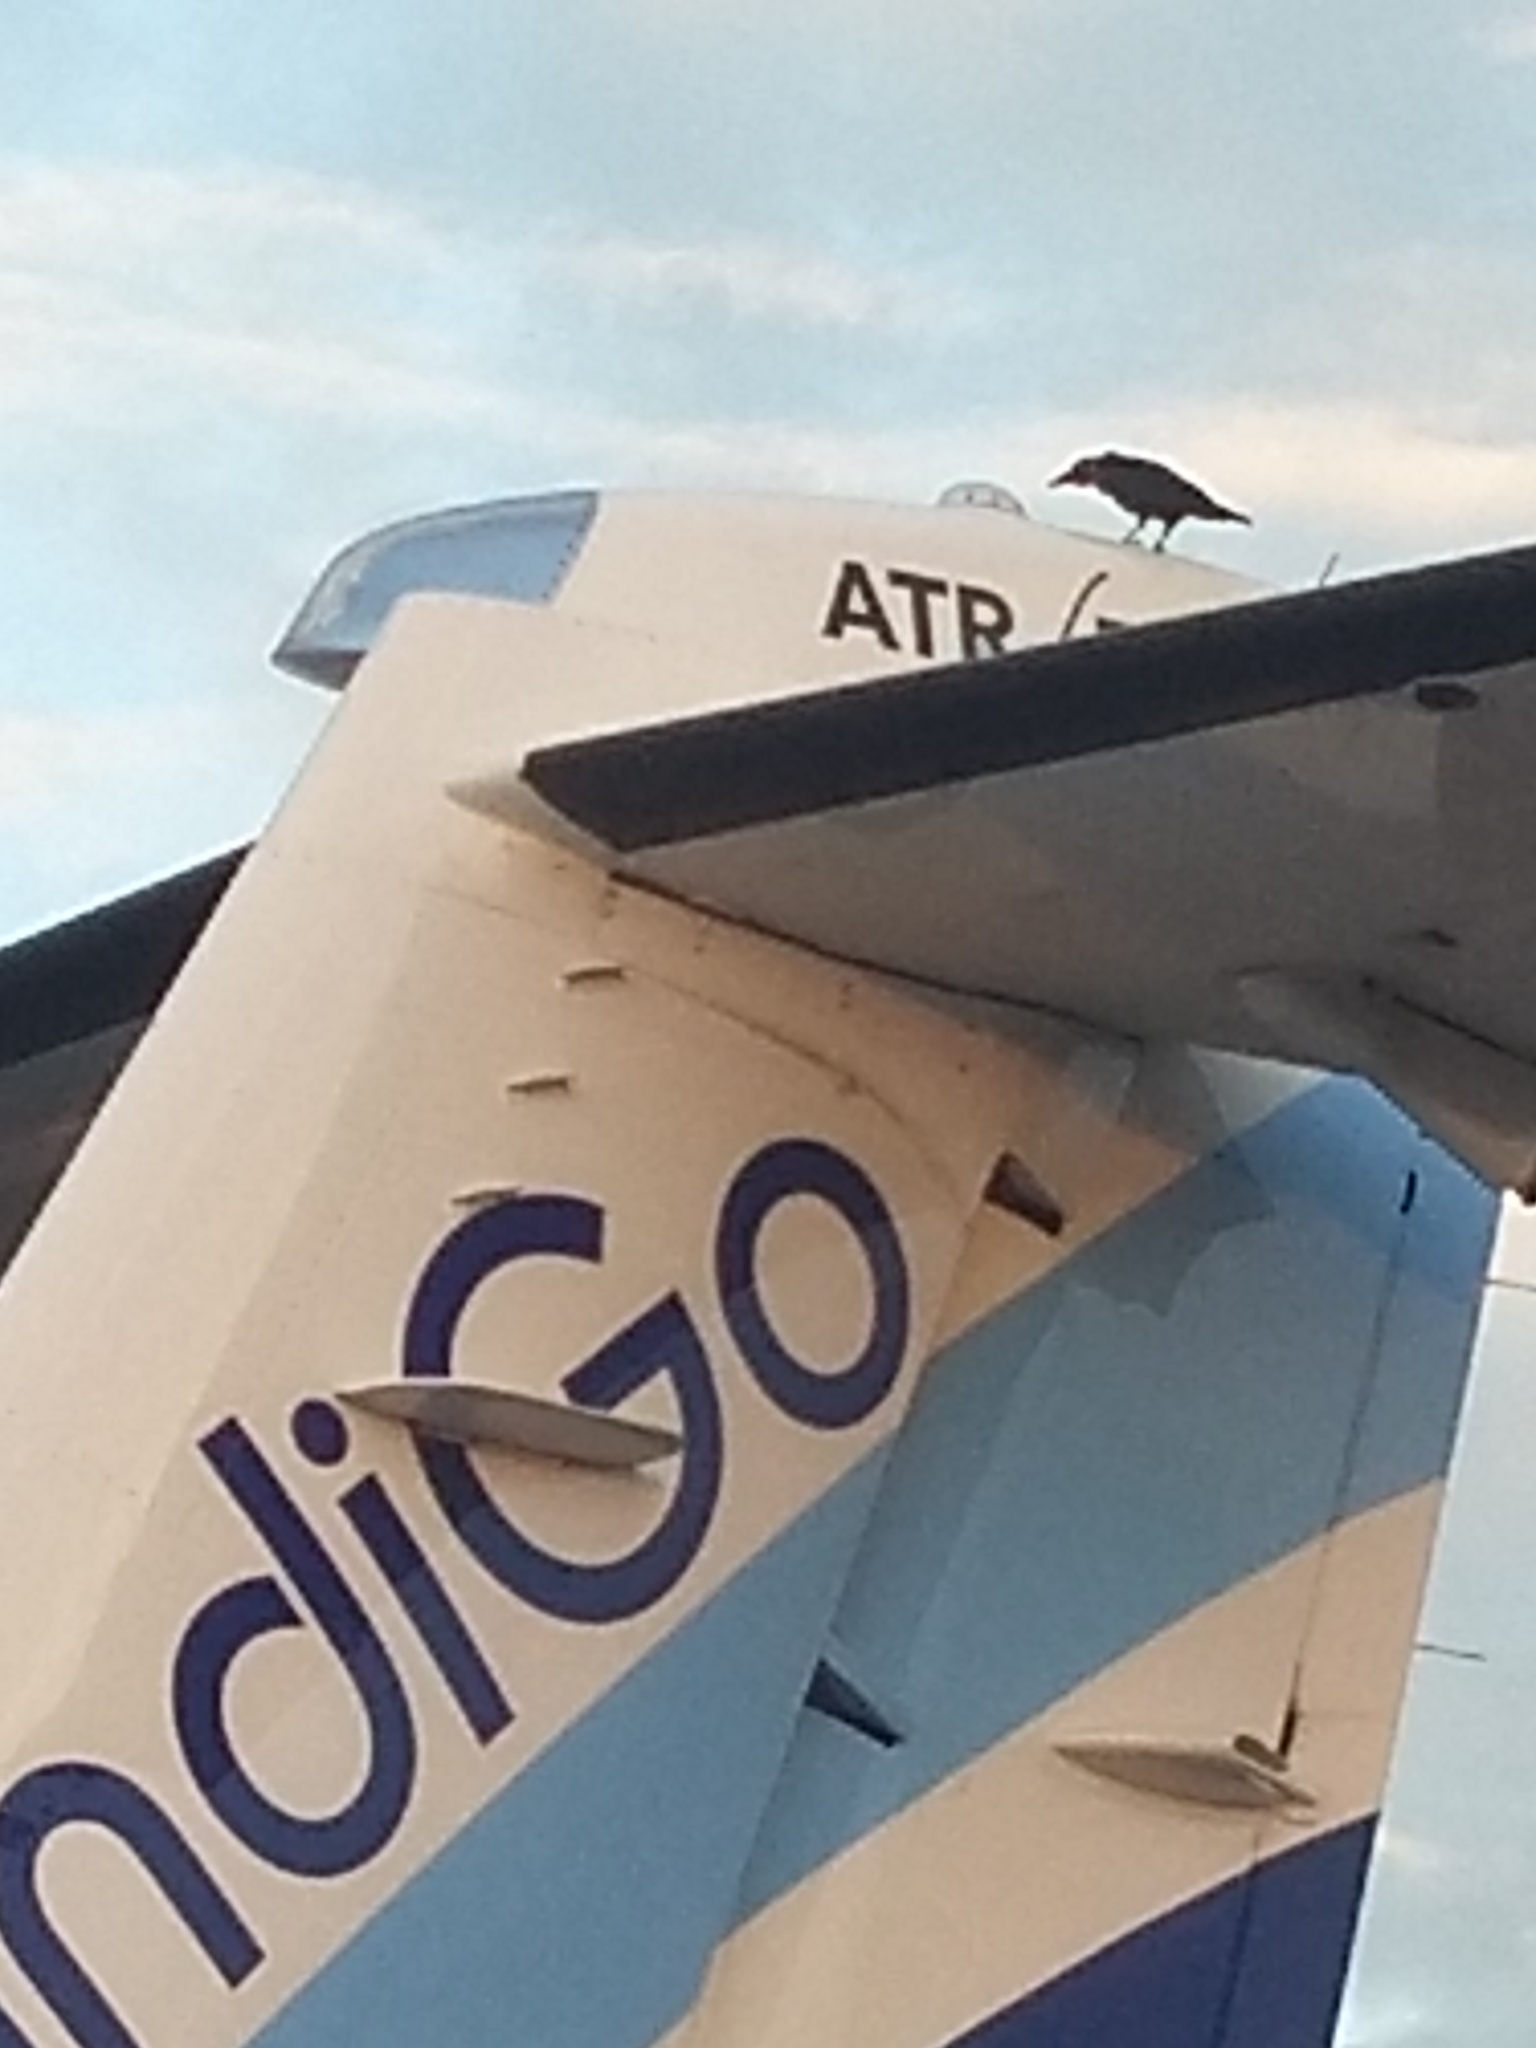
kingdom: Animalia
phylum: Chordata
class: Aves
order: Passeriformes
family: Corvidae
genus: Corvus
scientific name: Corvus splendens
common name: House crow
